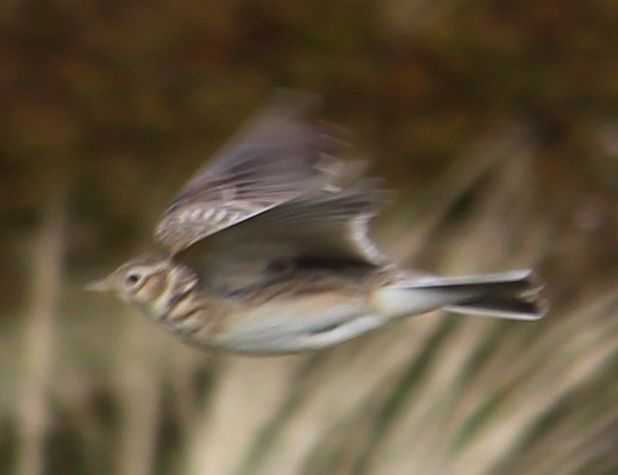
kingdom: Animalia
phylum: Chordata
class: Aves
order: Passeriformes
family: Alaudidae
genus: Alauda
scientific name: Alauda arvensis
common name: Eurasian skylark
